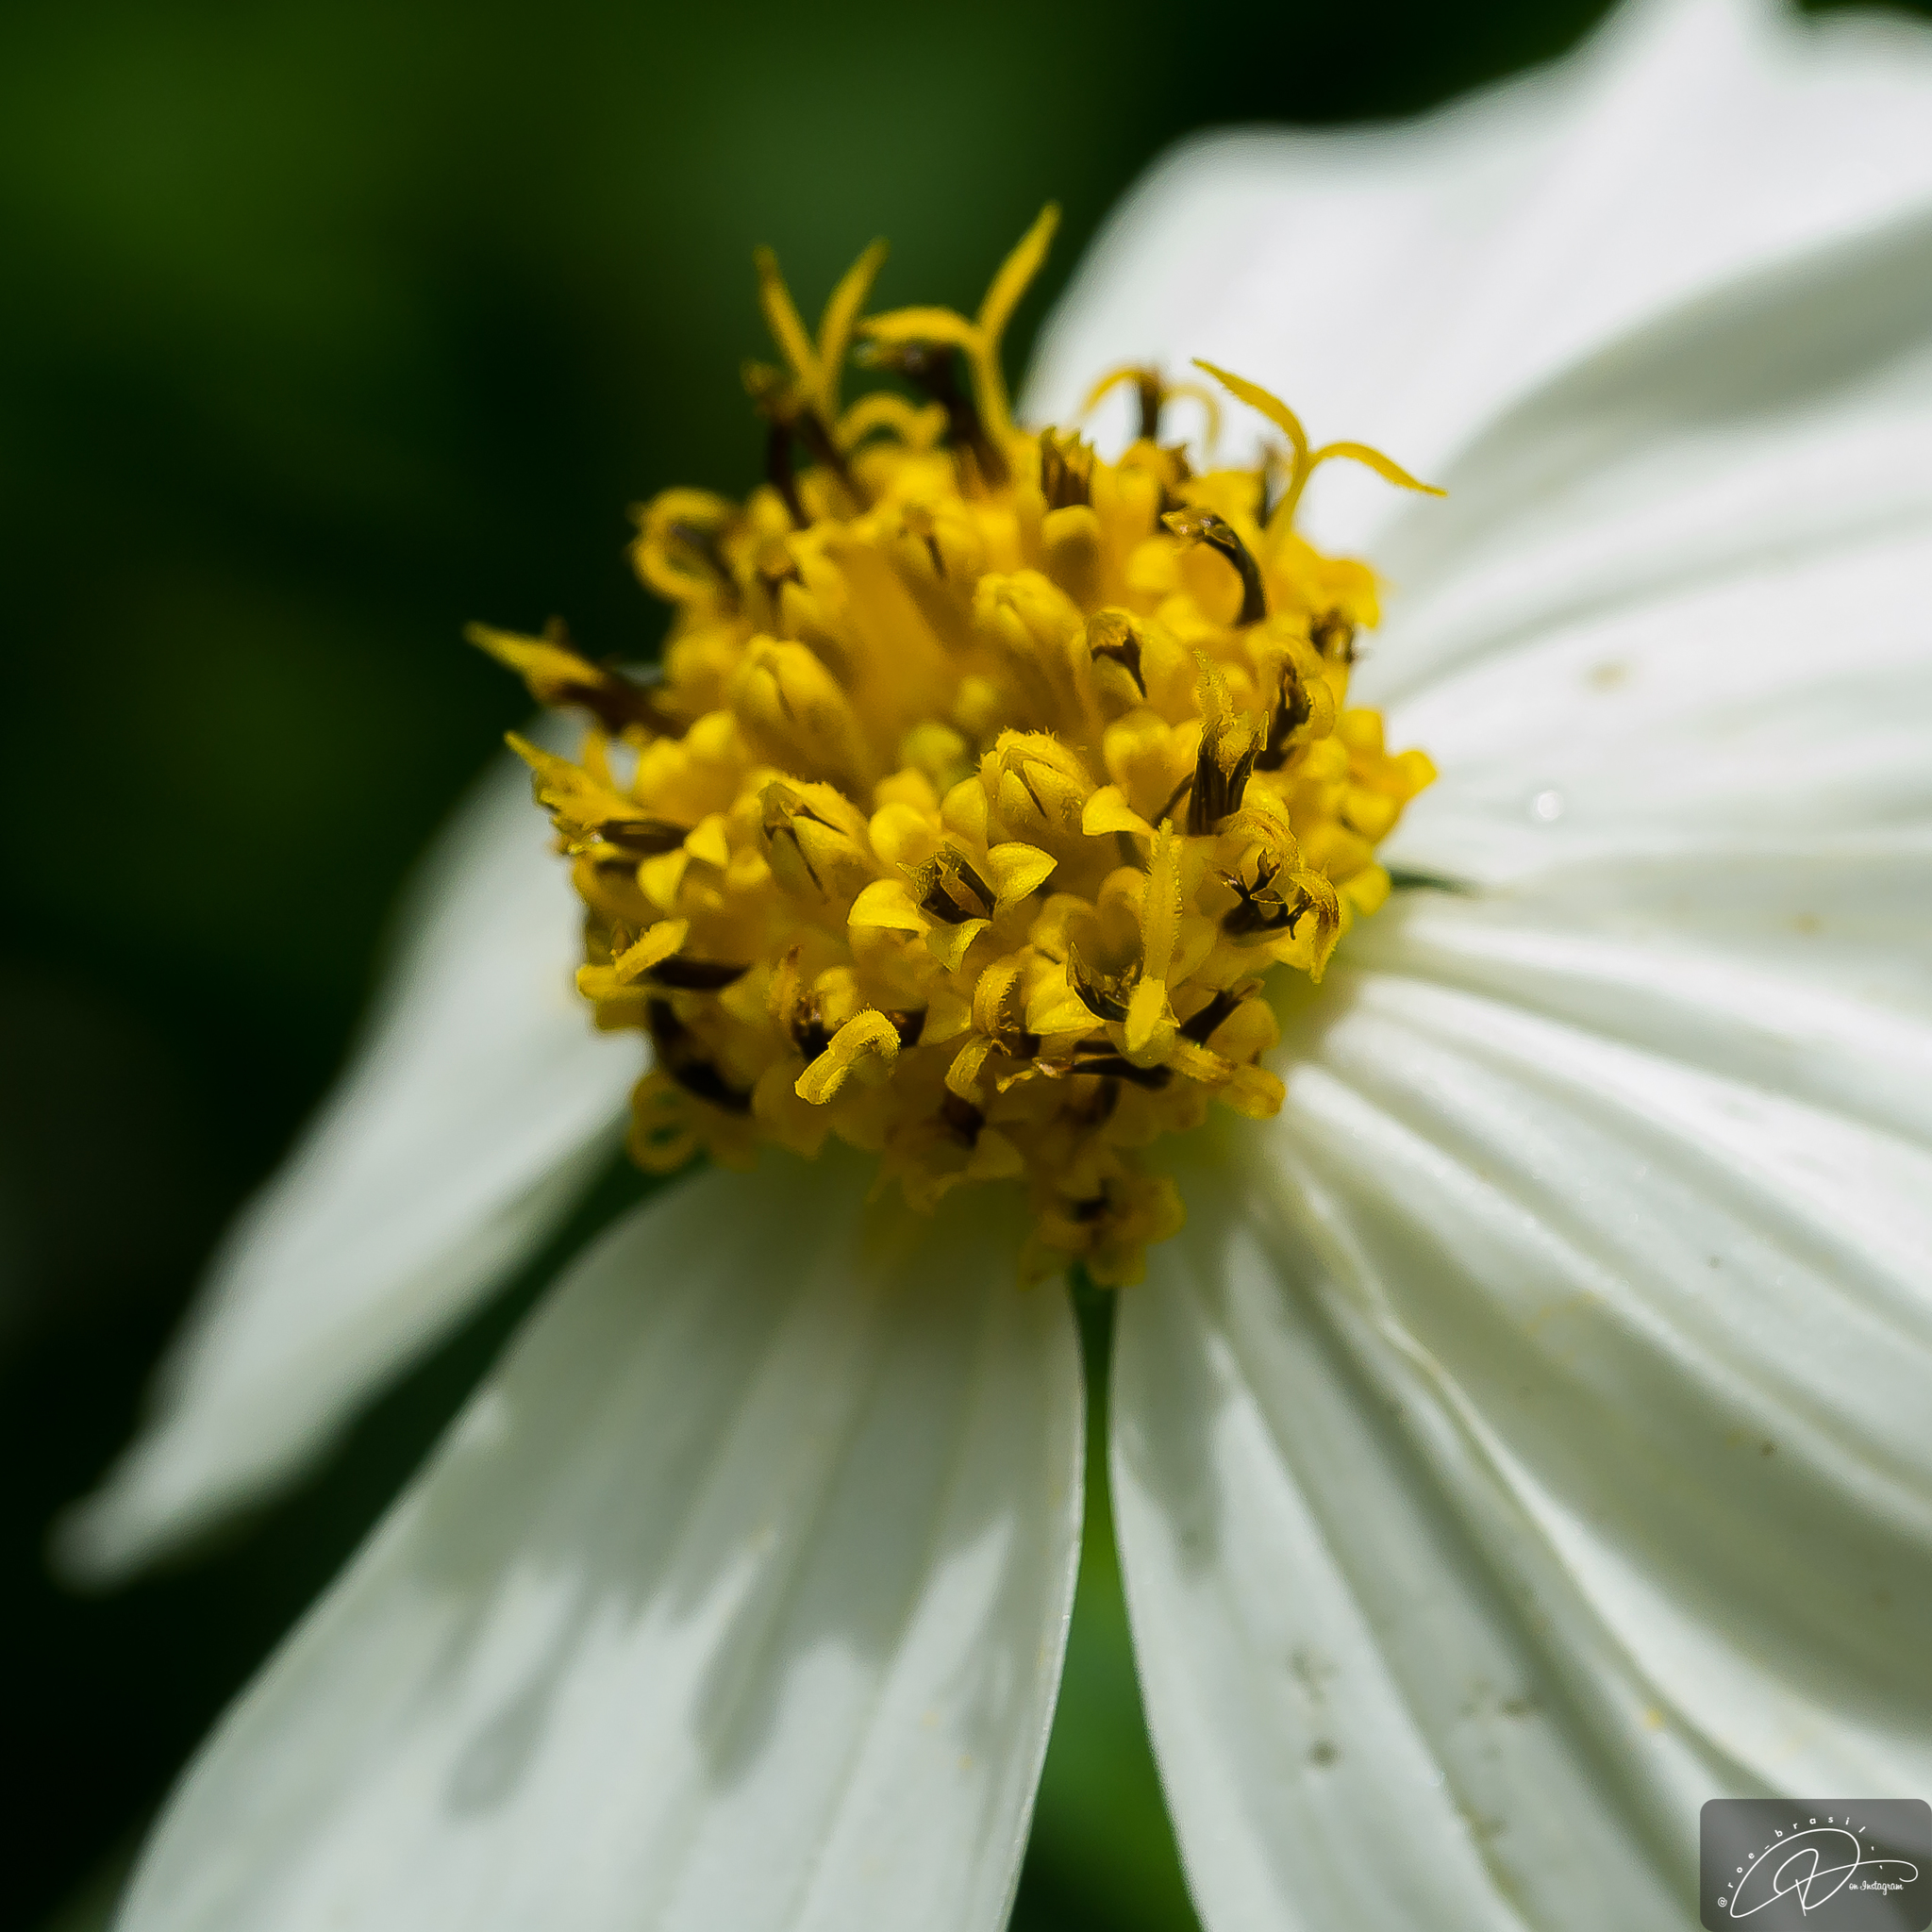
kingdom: Plantae
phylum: Tracheophyta
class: Magnoliopsida
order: Asterales
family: Asteraceae
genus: Bidens
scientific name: Bidens alba
